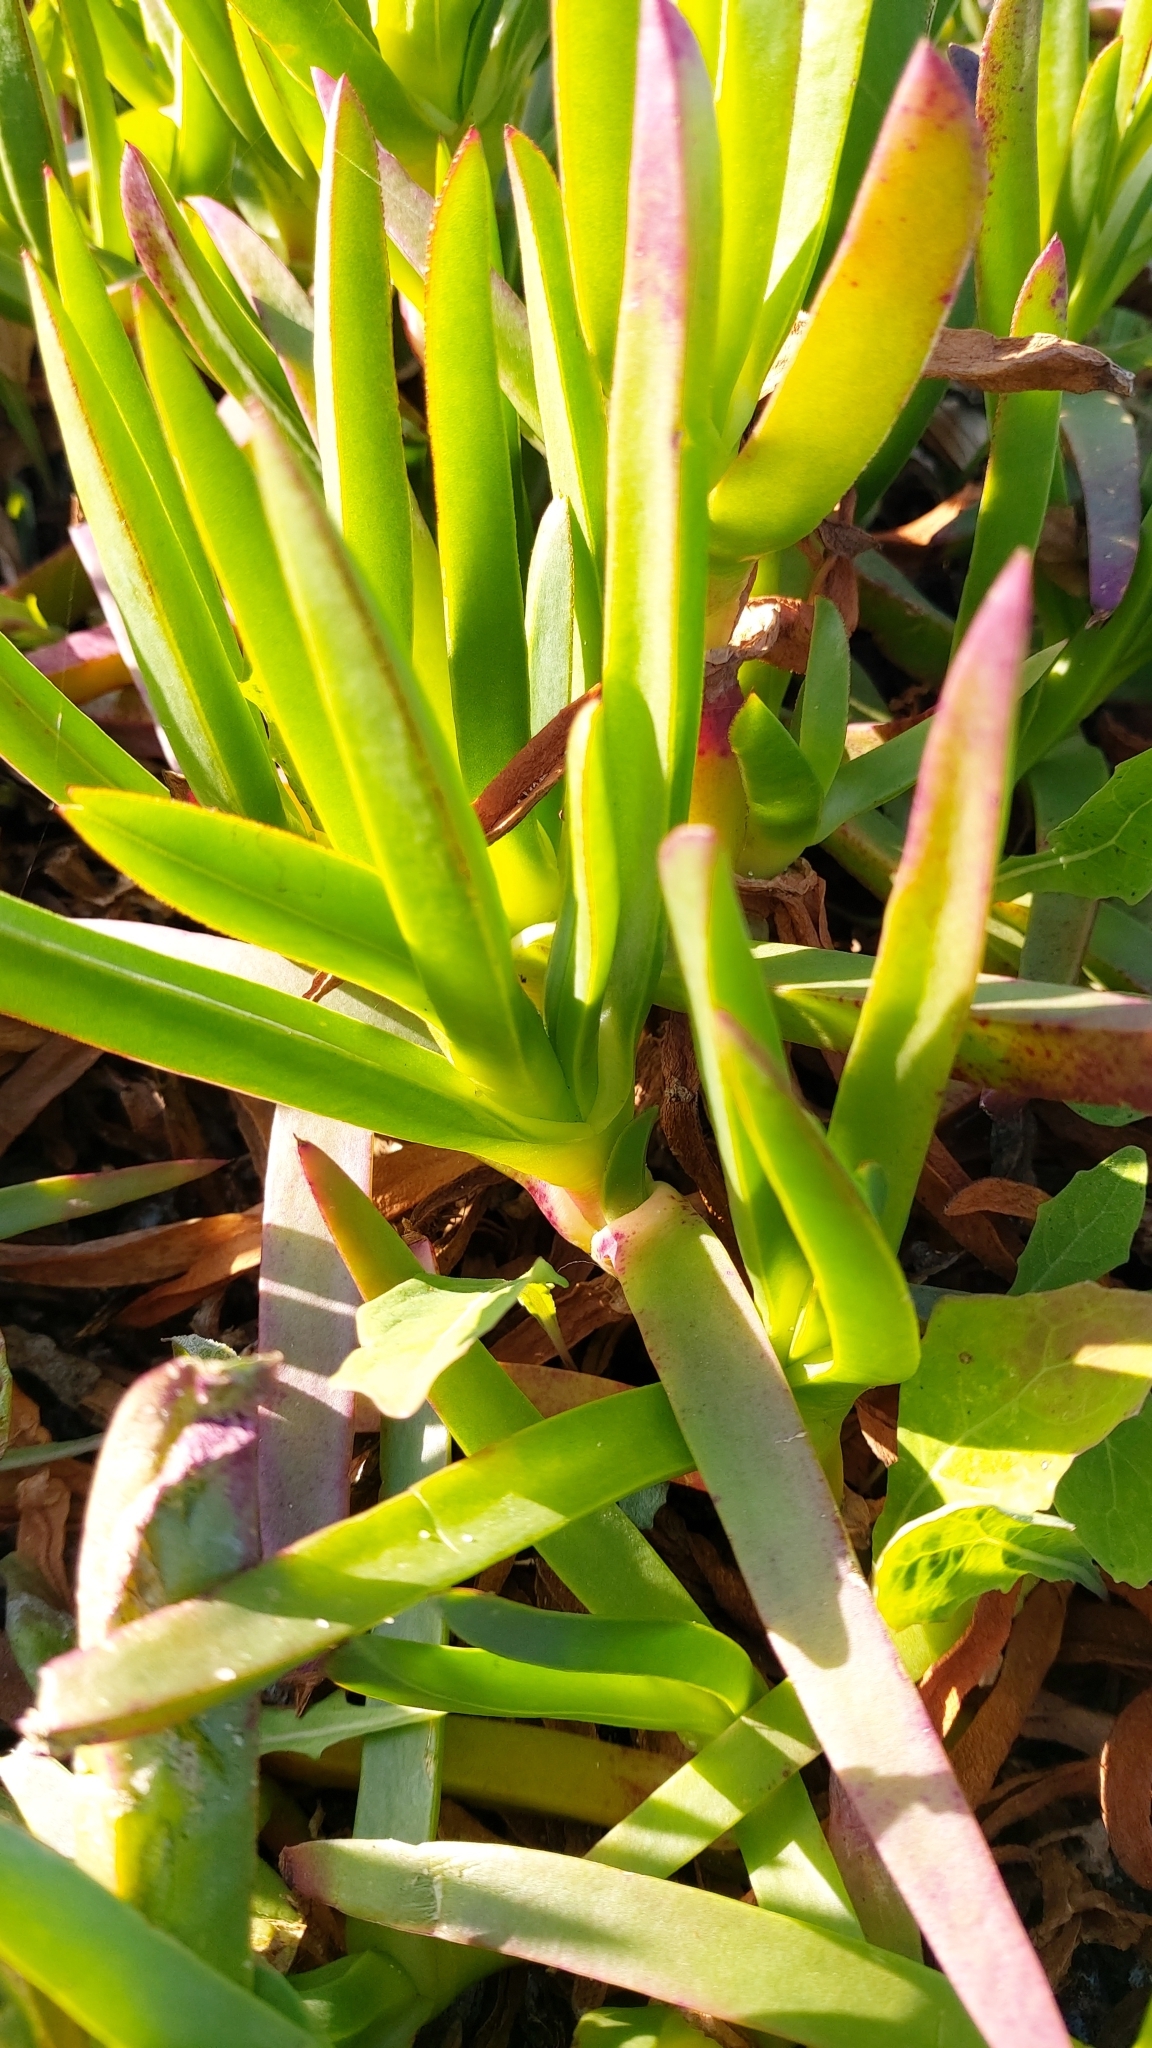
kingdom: Plantae
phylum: Tracheophyta
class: Magnoliopsida
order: Caryophyllales
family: Aizoaceae
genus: Carpobrotus
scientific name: Carpobrotus edulis
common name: Hottentot-fig
